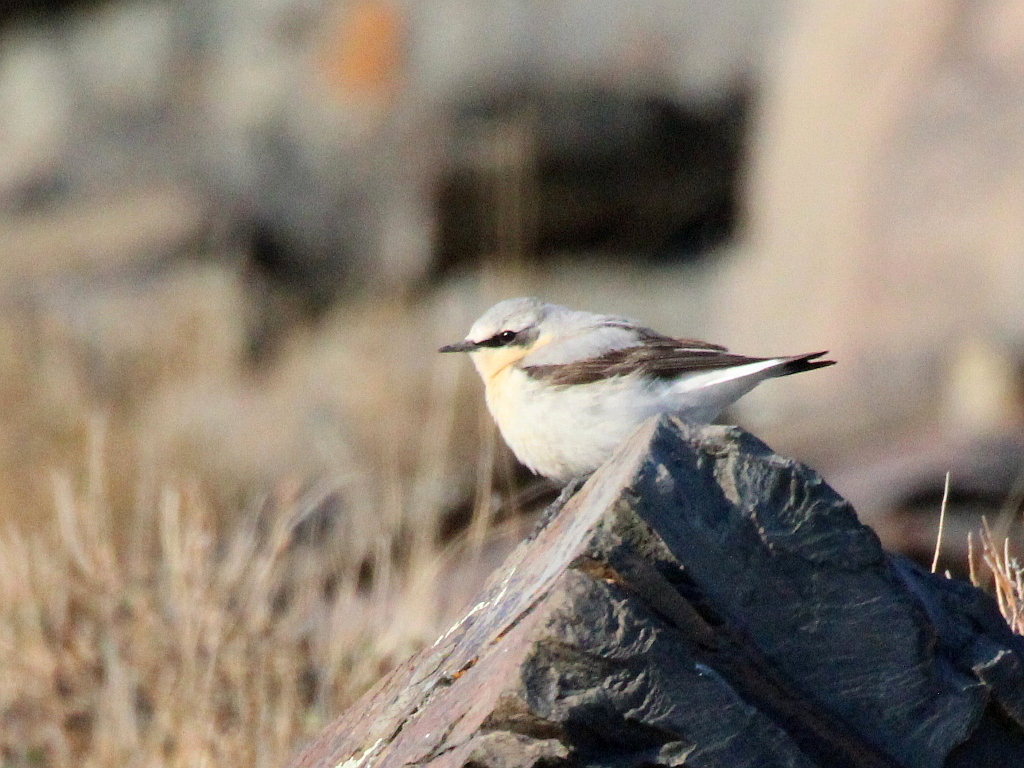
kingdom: Animalia
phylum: Chordata
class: Aves
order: Passeriformes
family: Muscicapidae
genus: Oenanthe
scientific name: Oenanthe oenanthe
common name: Northern wheatear
